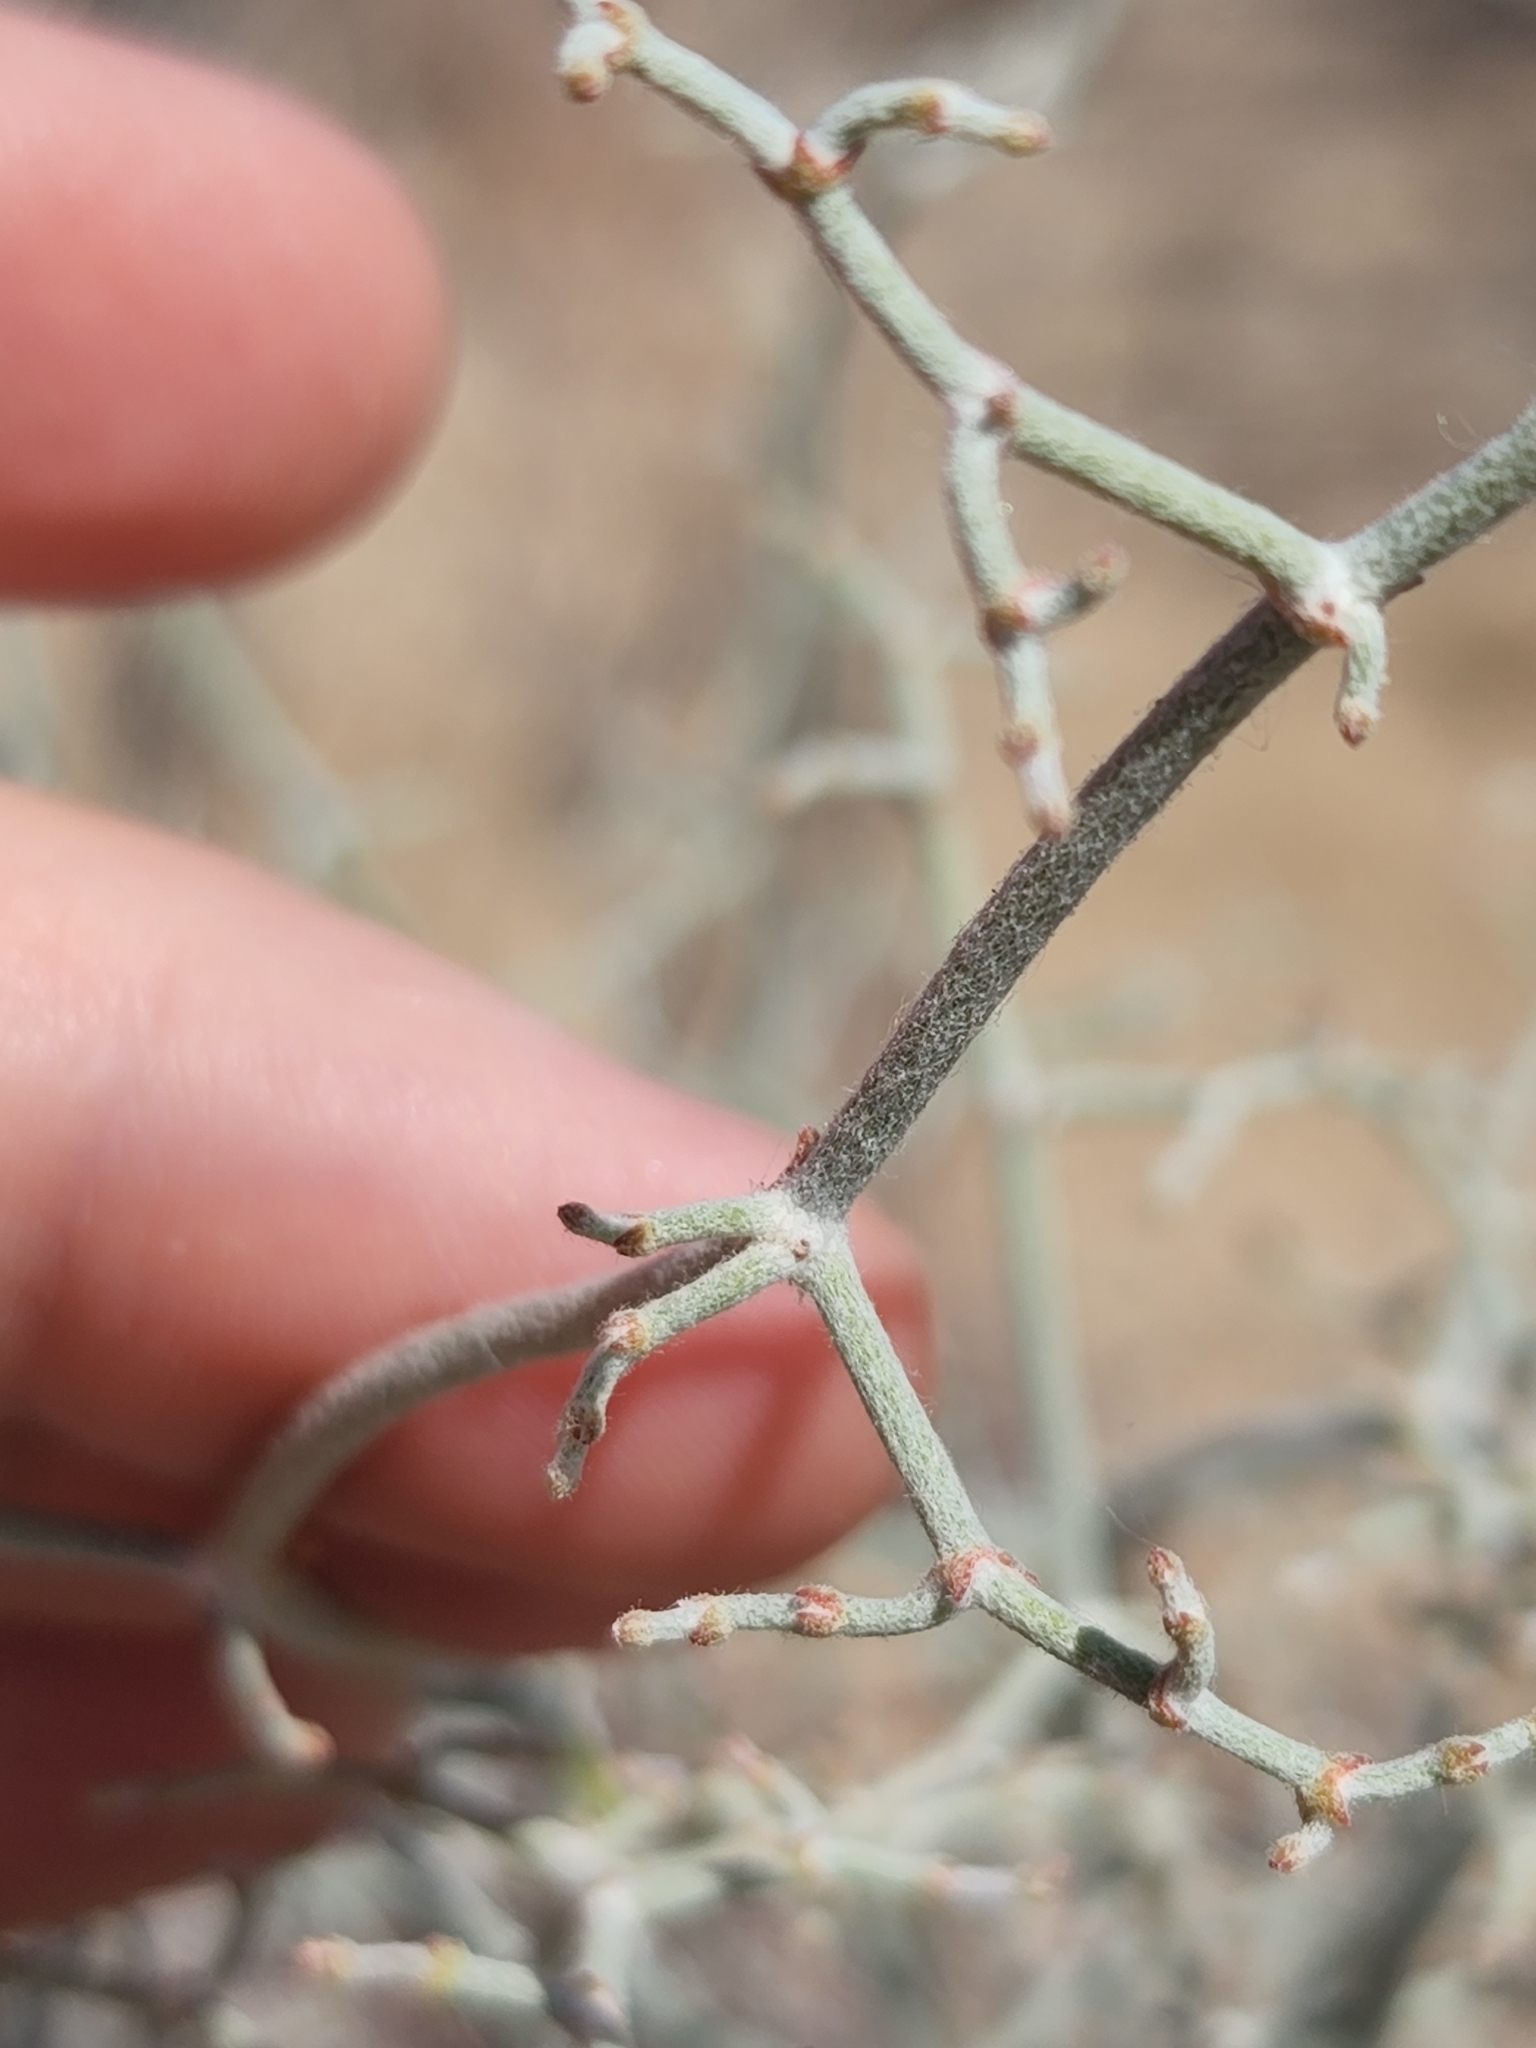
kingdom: Plantae
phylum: Tracheophyta
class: Magnoliopsida
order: Caryophyllales
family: Polygonaceae
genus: Eriogonum
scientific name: Eriogonum plumatella
